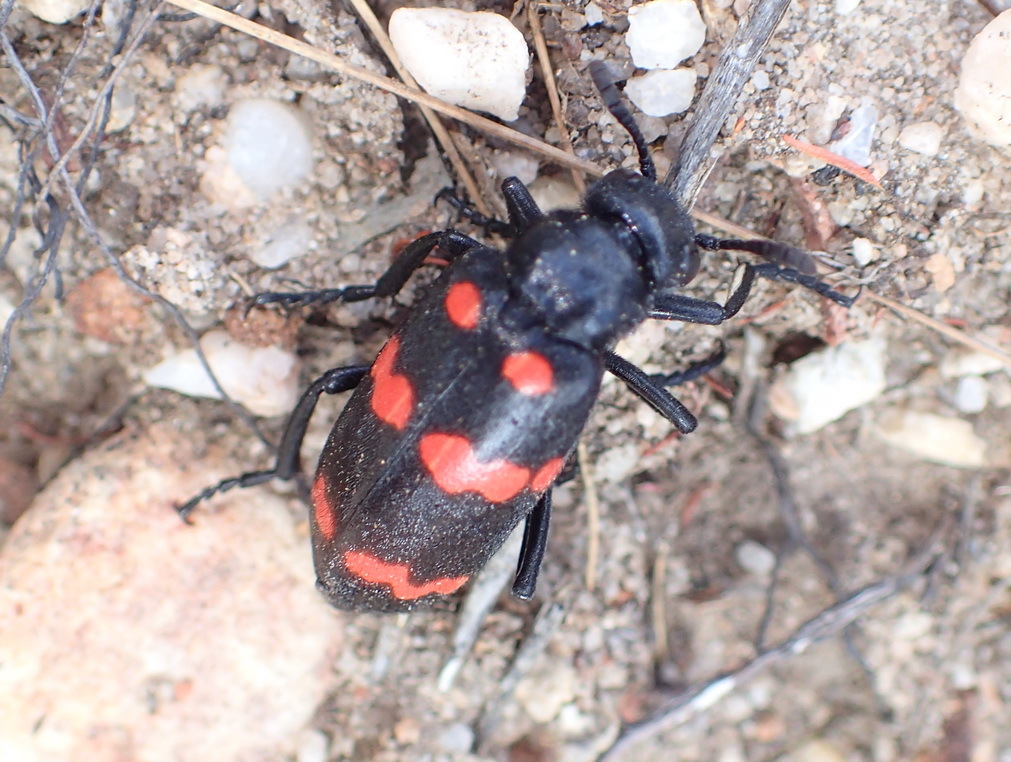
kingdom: Animalia
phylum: Arthropoda
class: Insecta
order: Coleoptera
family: Meloidae
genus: Hycleus
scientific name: Hycleus
